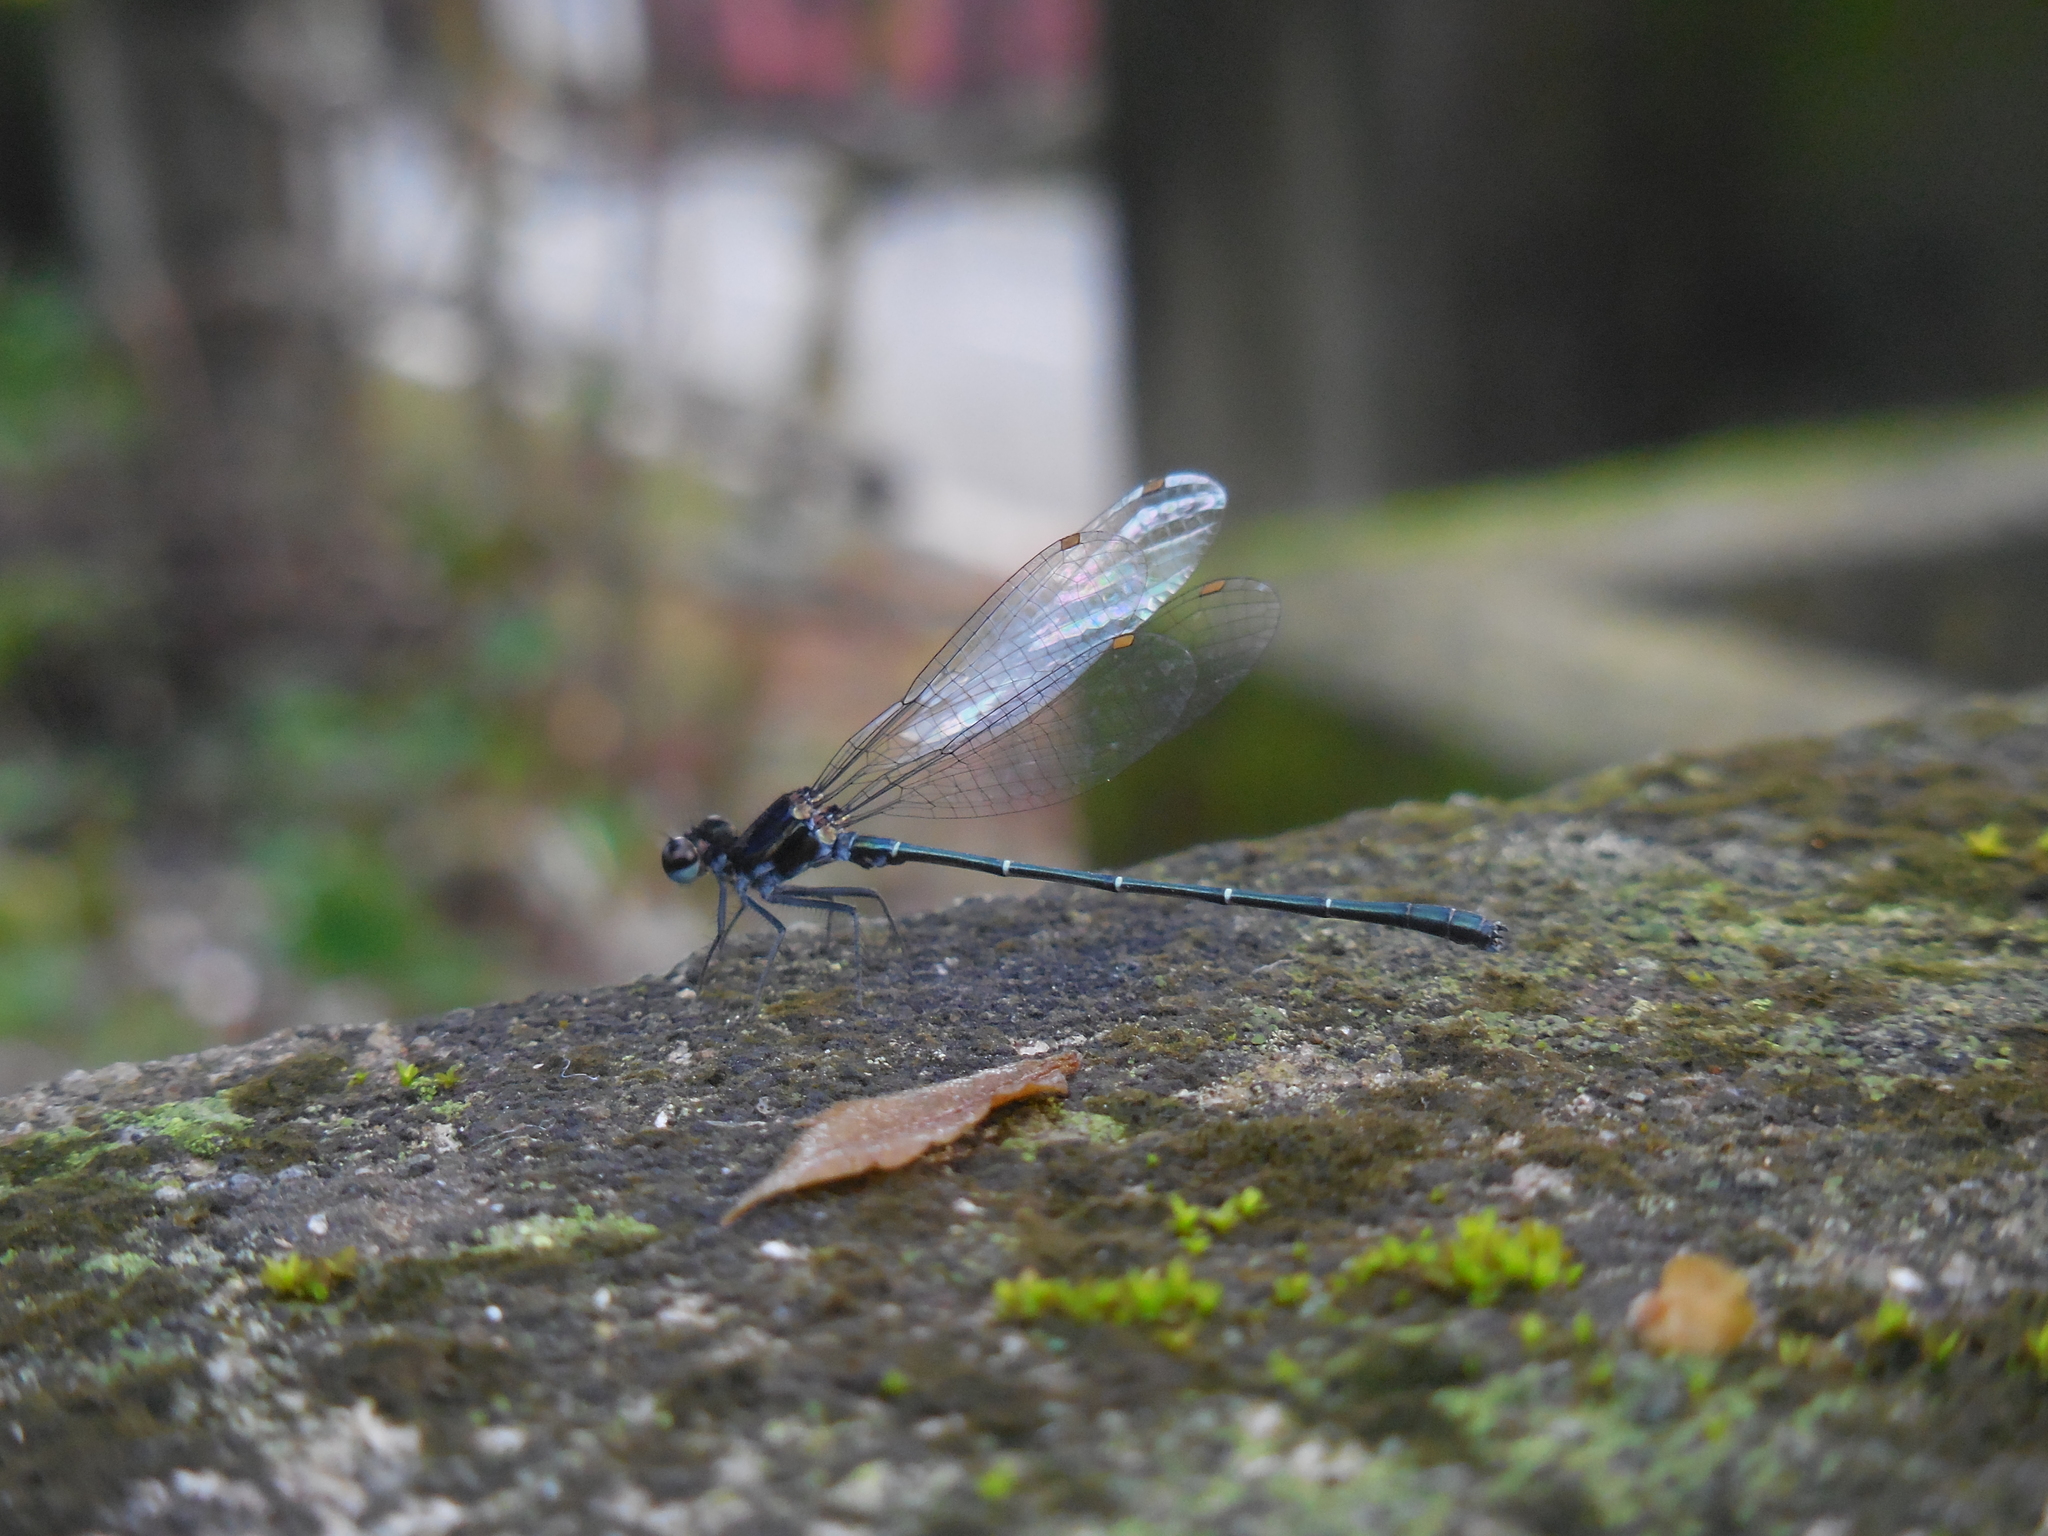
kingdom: Animalia
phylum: Arthropoda
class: Insecta
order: Odonata
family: Platycnemididae
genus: Onychargia
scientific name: Onychargia atrocyana
